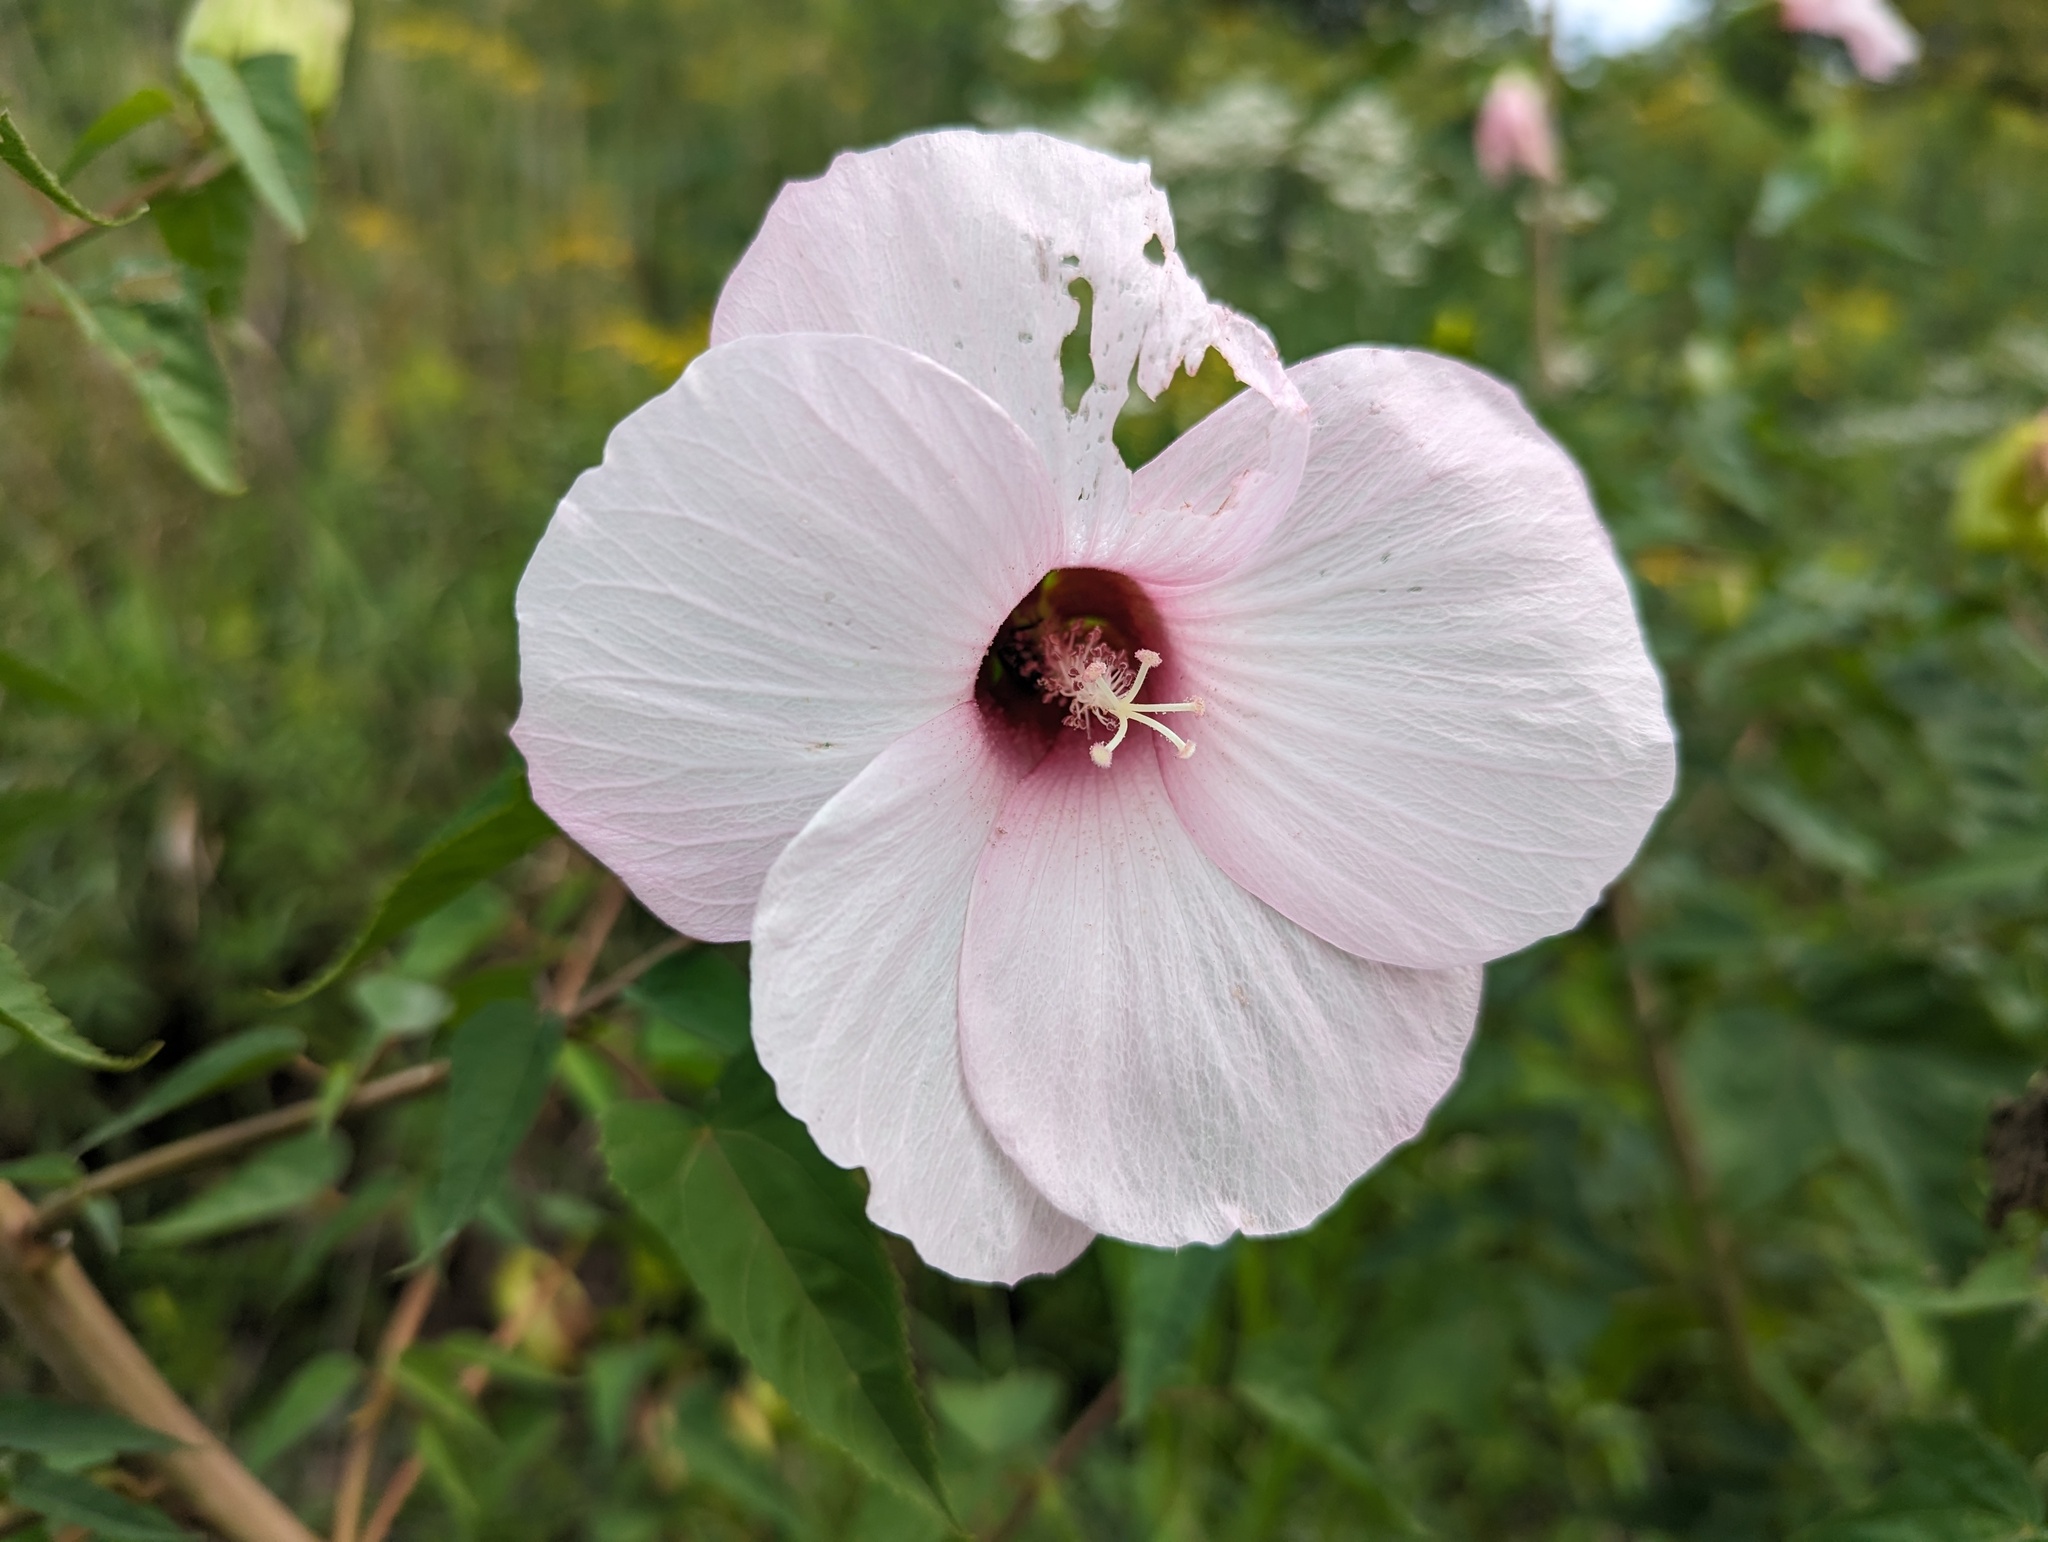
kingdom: Plantae
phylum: Tracheophyta
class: Magnoliopsida
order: Malvales
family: Malvaceae
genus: Hibiscus
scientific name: Hibiscus laevis
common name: Scarlet rose-mallow
